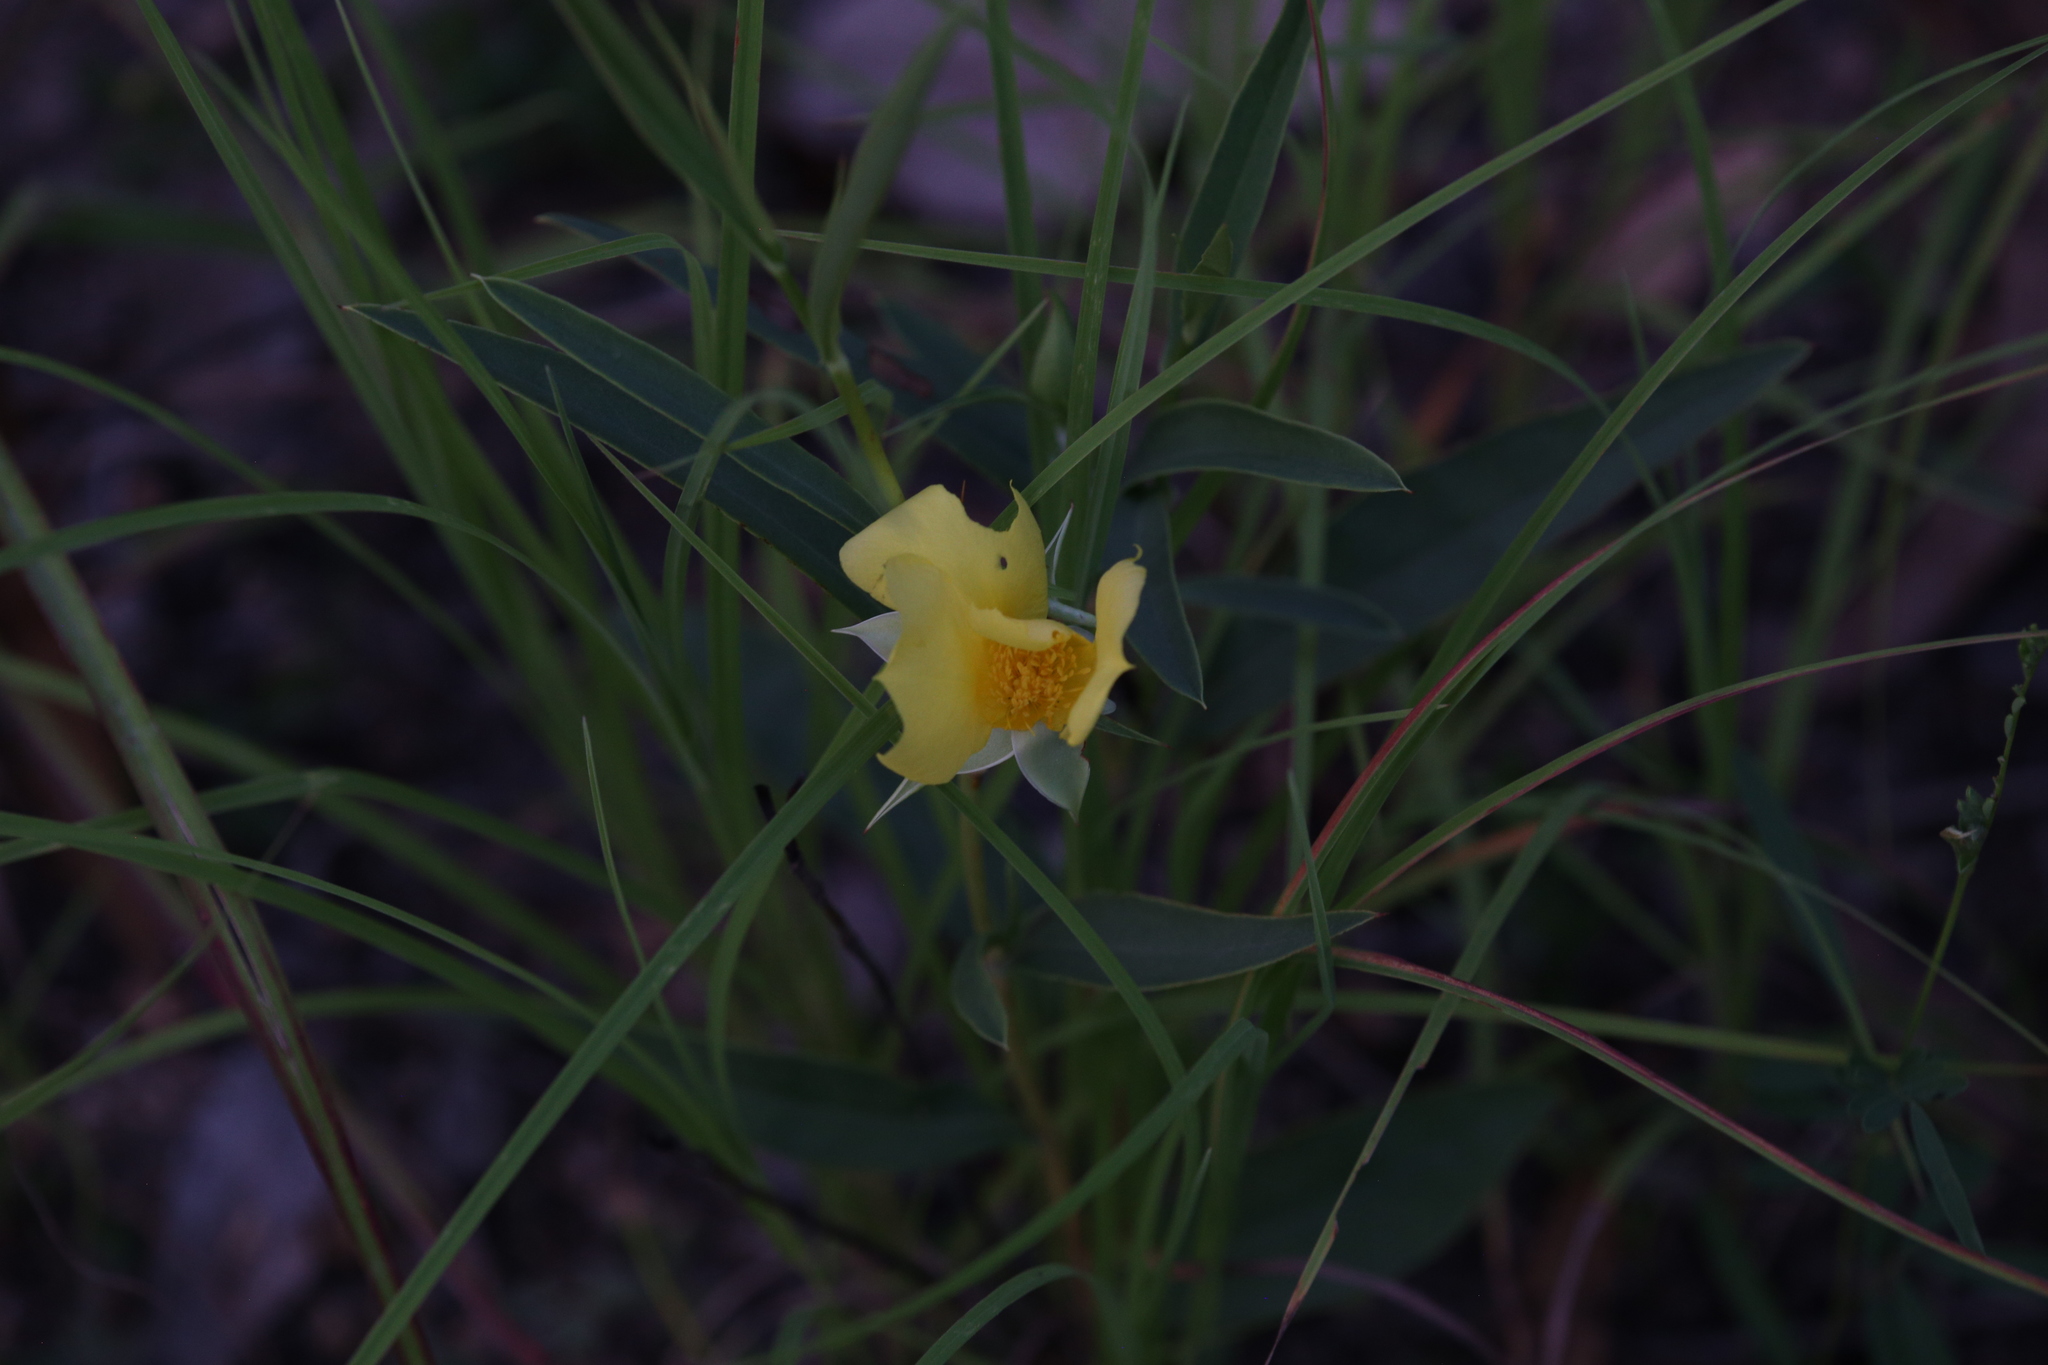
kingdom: Plantae
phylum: Tracheophyta
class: Magnoliopsida
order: Dilleniales
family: Dilleniaceae
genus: Hibbertia
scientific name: Hibbertia longifolia
